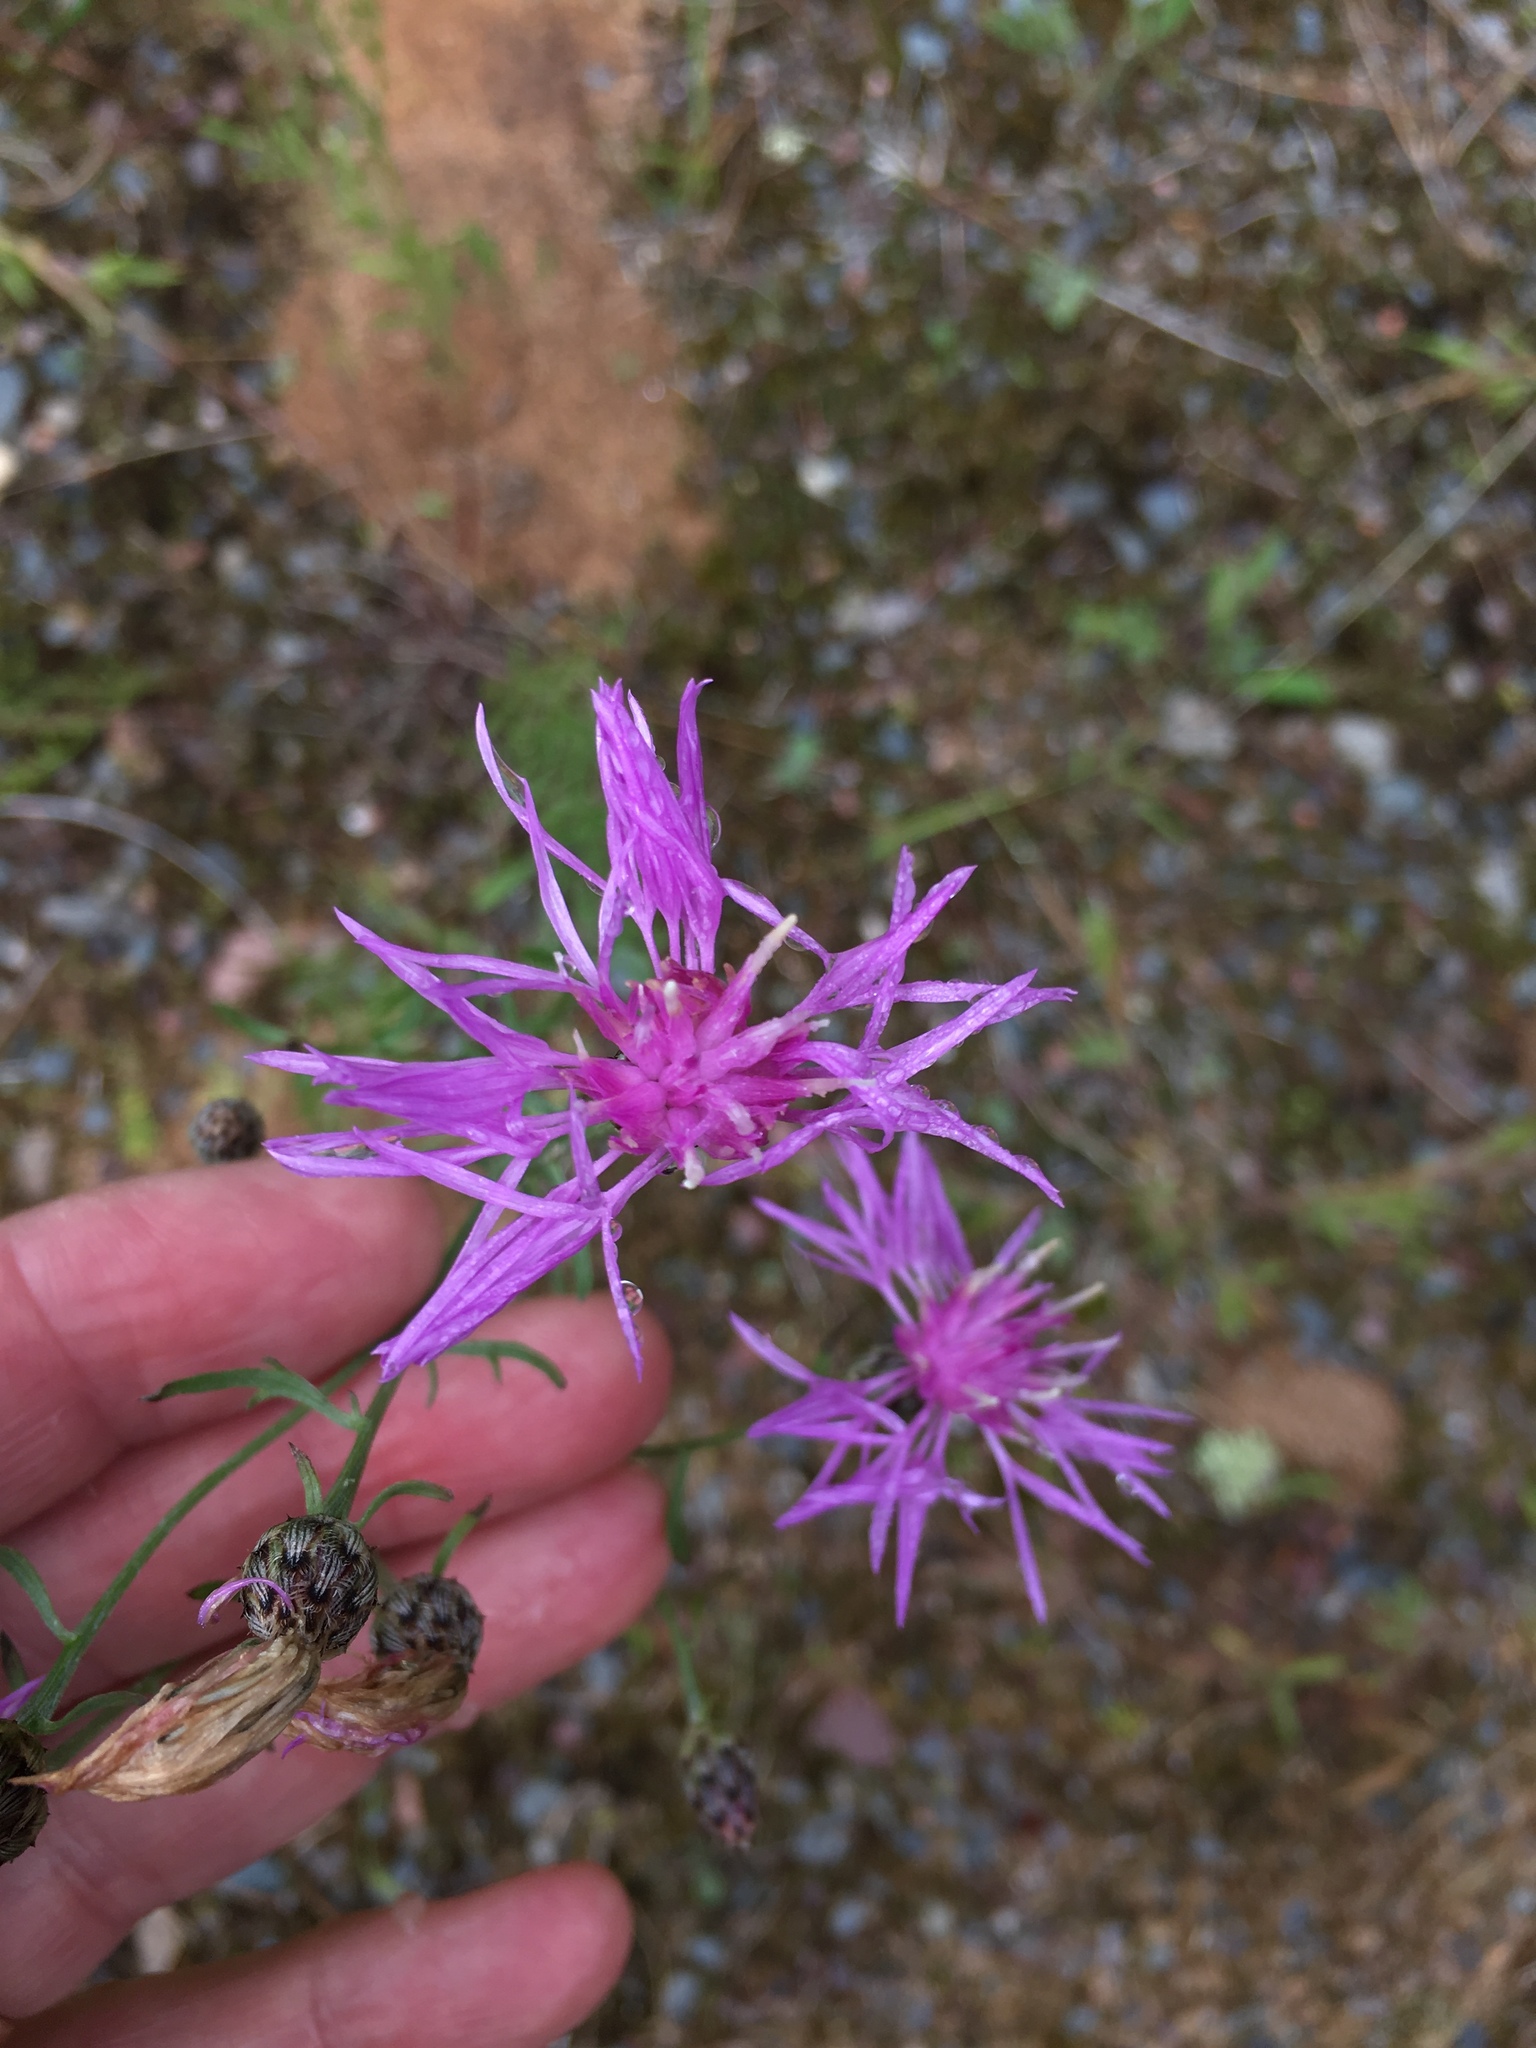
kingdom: Plantae
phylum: Tracheophyta
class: Magnoliopsida
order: Asterales
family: Asteraceae
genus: Centaurea
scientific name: Centaurea stoebe
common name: Spotted knapweed
